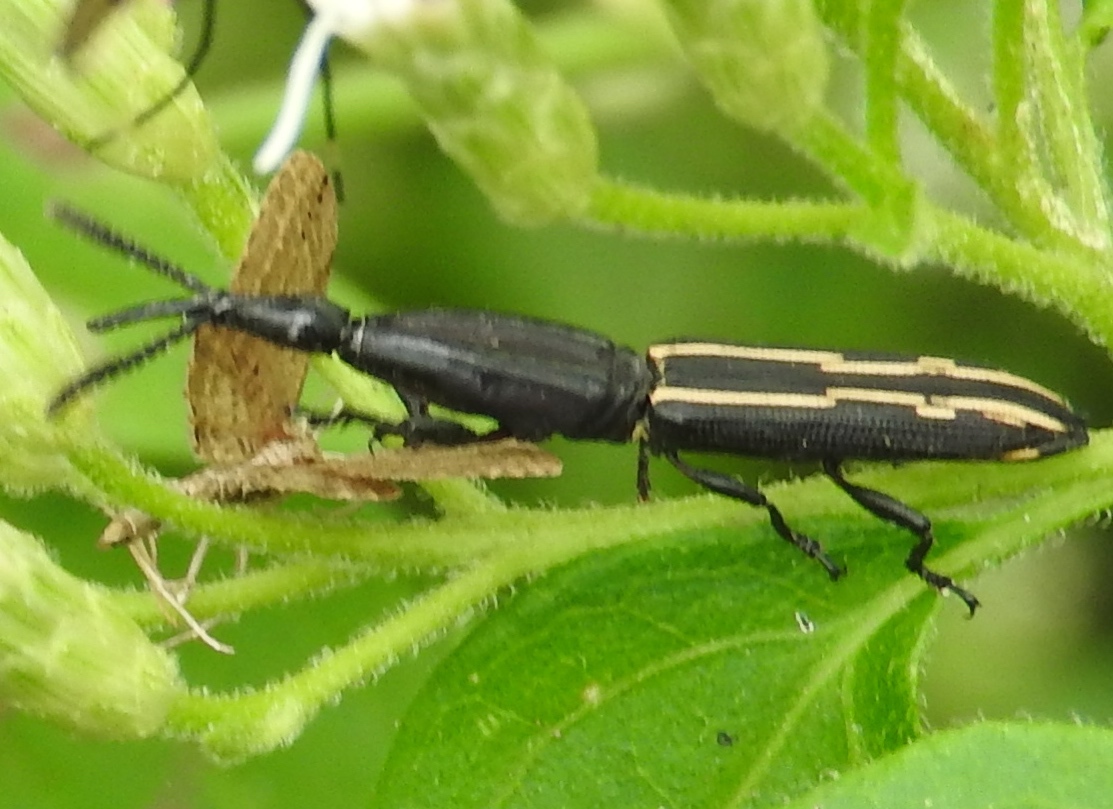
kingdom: Animalia
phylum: Arthropoda
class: Insecta
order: Coleoptera
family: Brentidae
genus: Brentus
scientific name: Brentus
